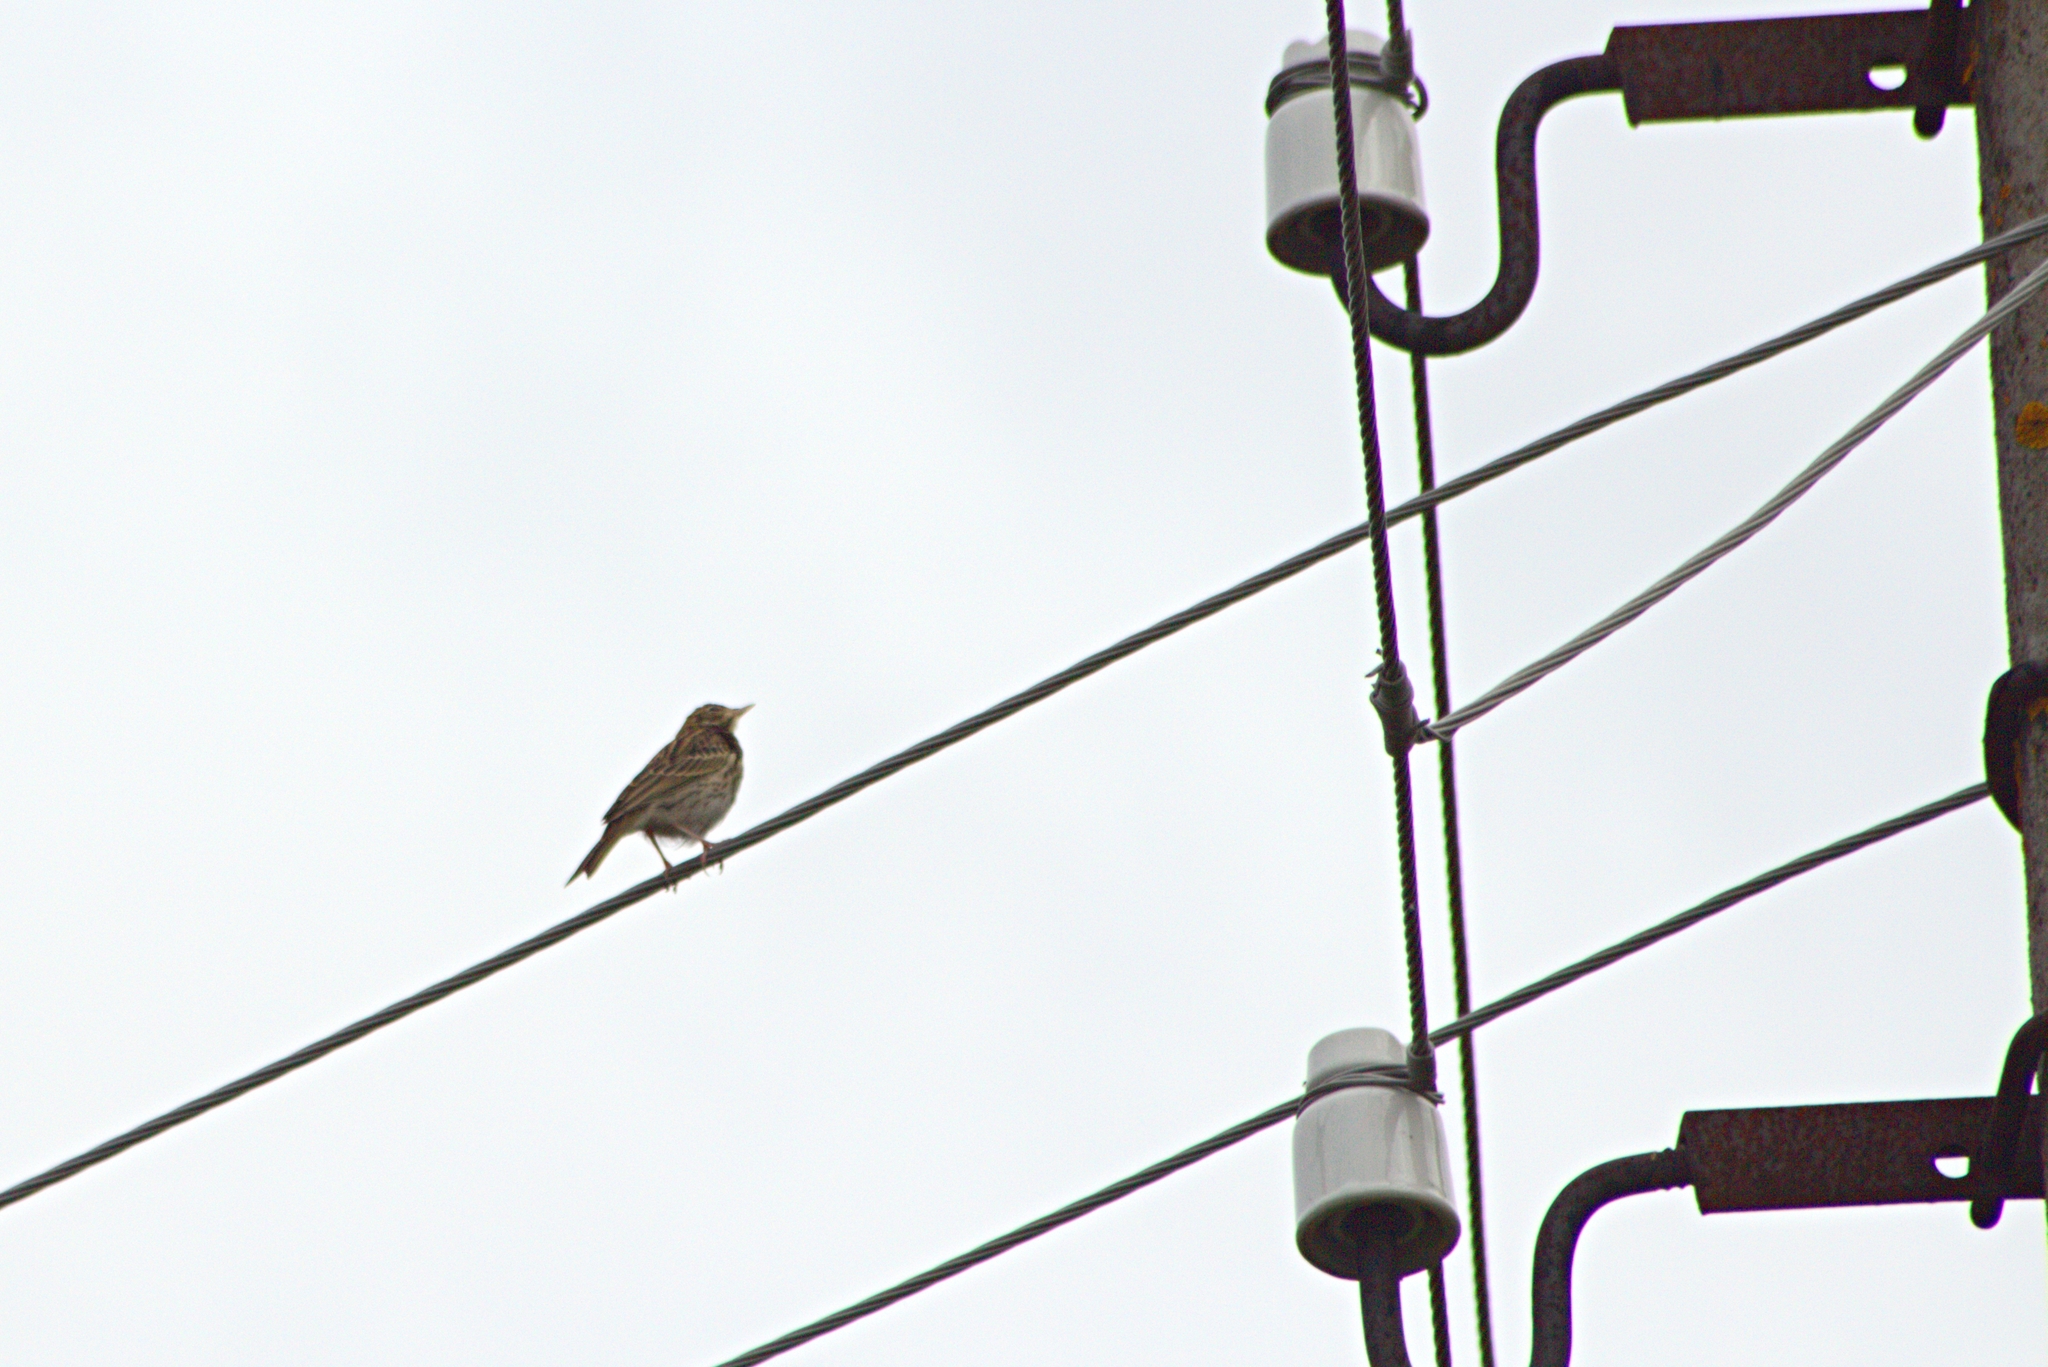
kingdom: Animalia
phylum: Chordata
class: Aves
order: Passeriformes
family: Motacillidae
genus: Anthus
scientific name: Anthus trivialis
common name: Tree pipit
